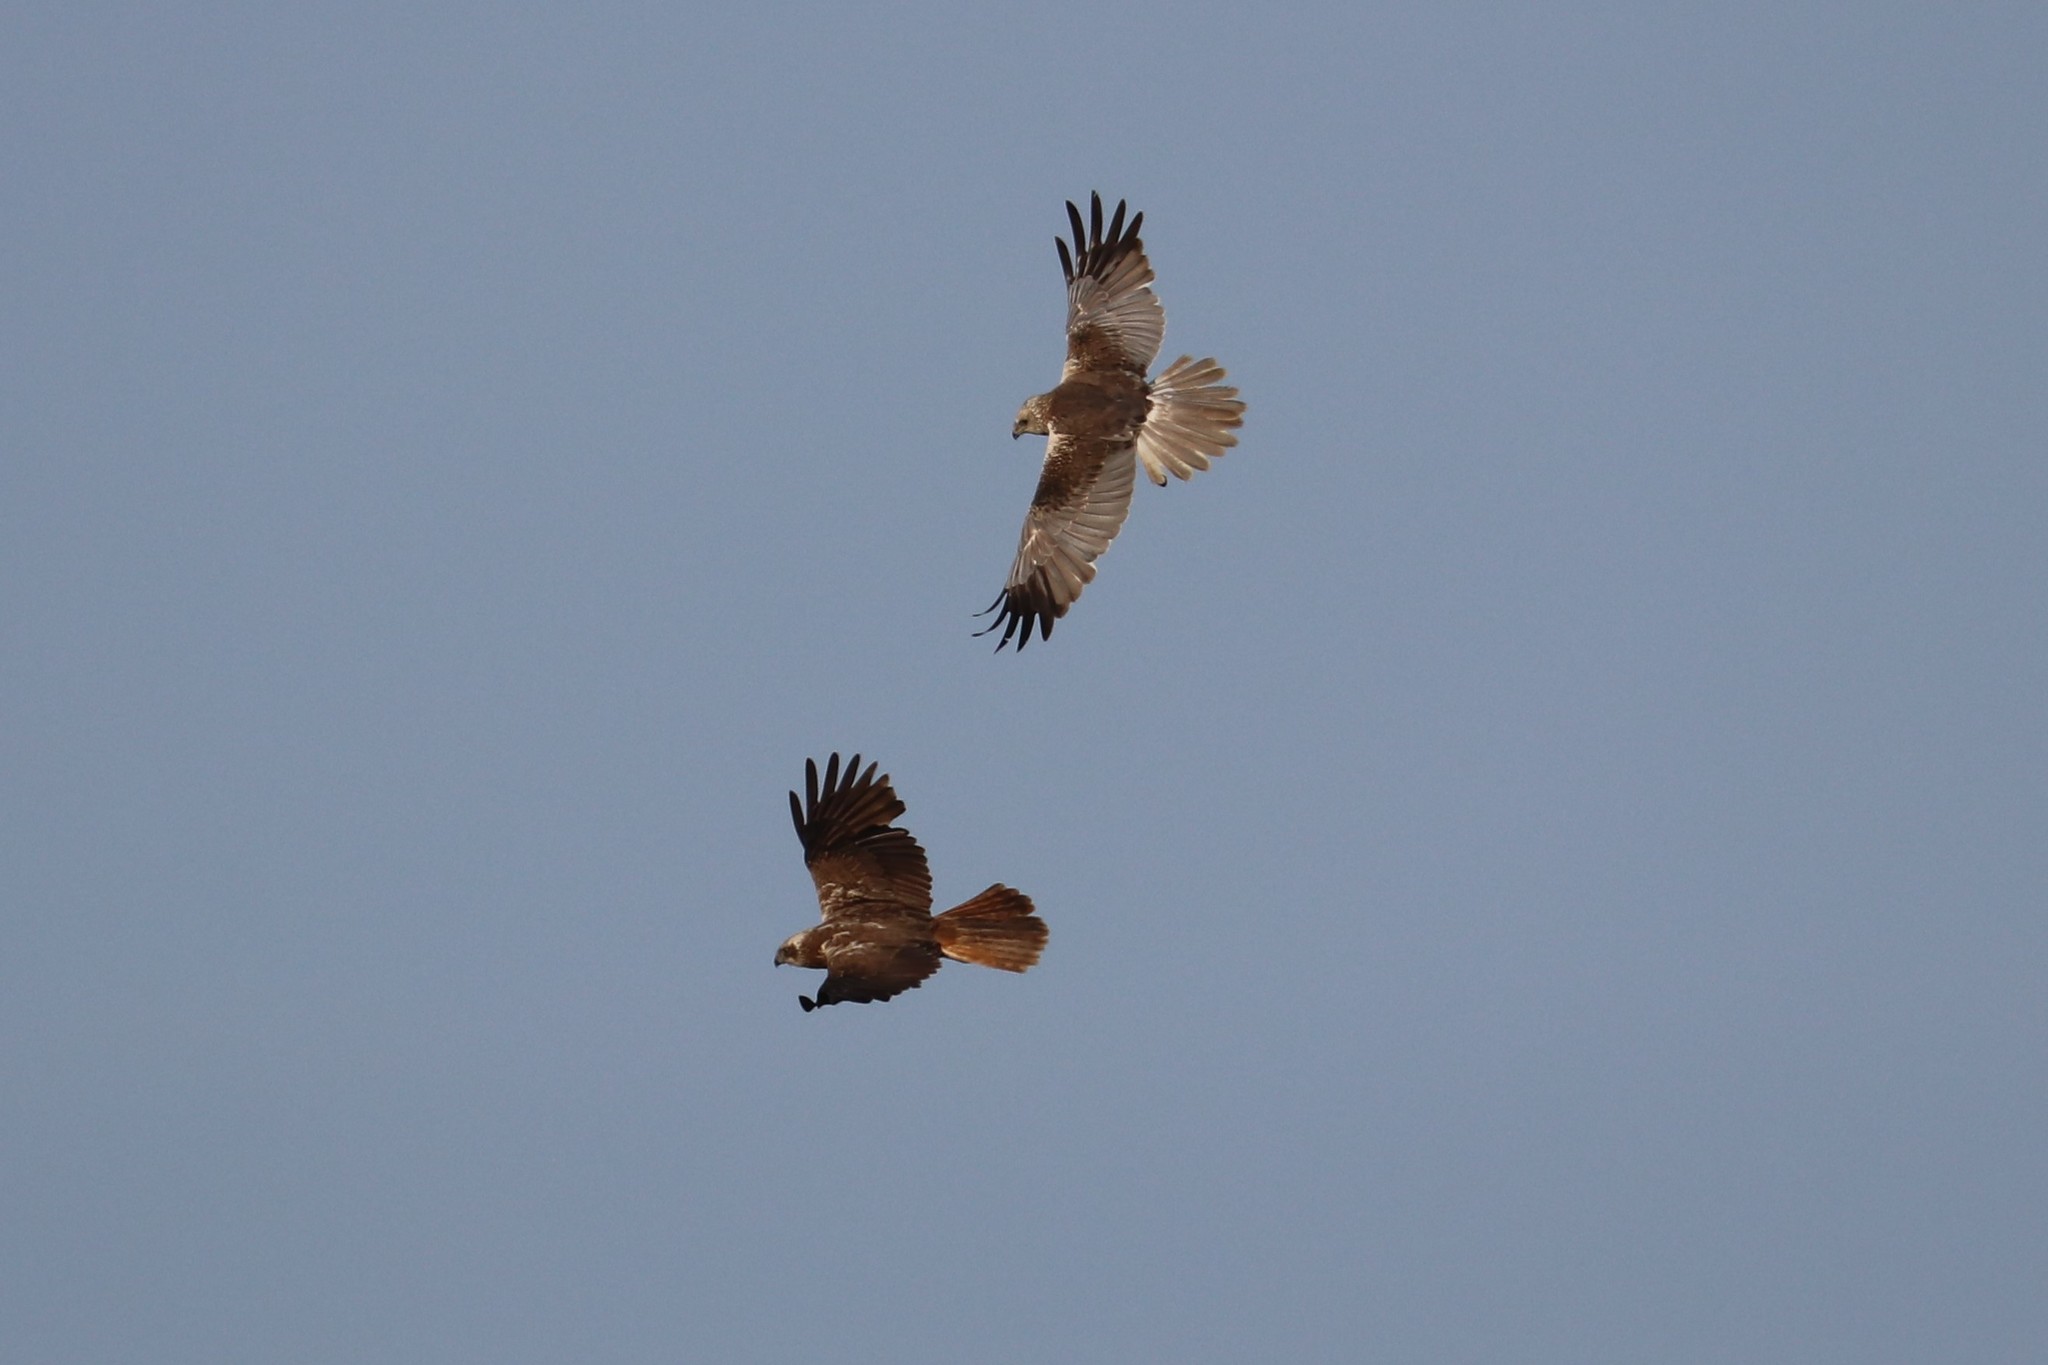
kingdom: Animalia
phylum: Chordata
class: Aves
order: Accipitriformes
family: Accipitridae
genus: Circus
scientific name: Circus aeruginosus
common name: Western marsh harrier
